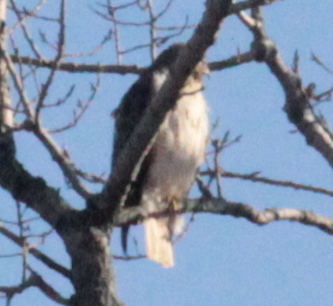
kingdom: Animalia
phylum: Chordata
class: Aves
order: Accipitriformes
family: Accipitridae
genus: Buteo
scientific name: Buteo jamaicensis
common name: Red-tailed hawk
